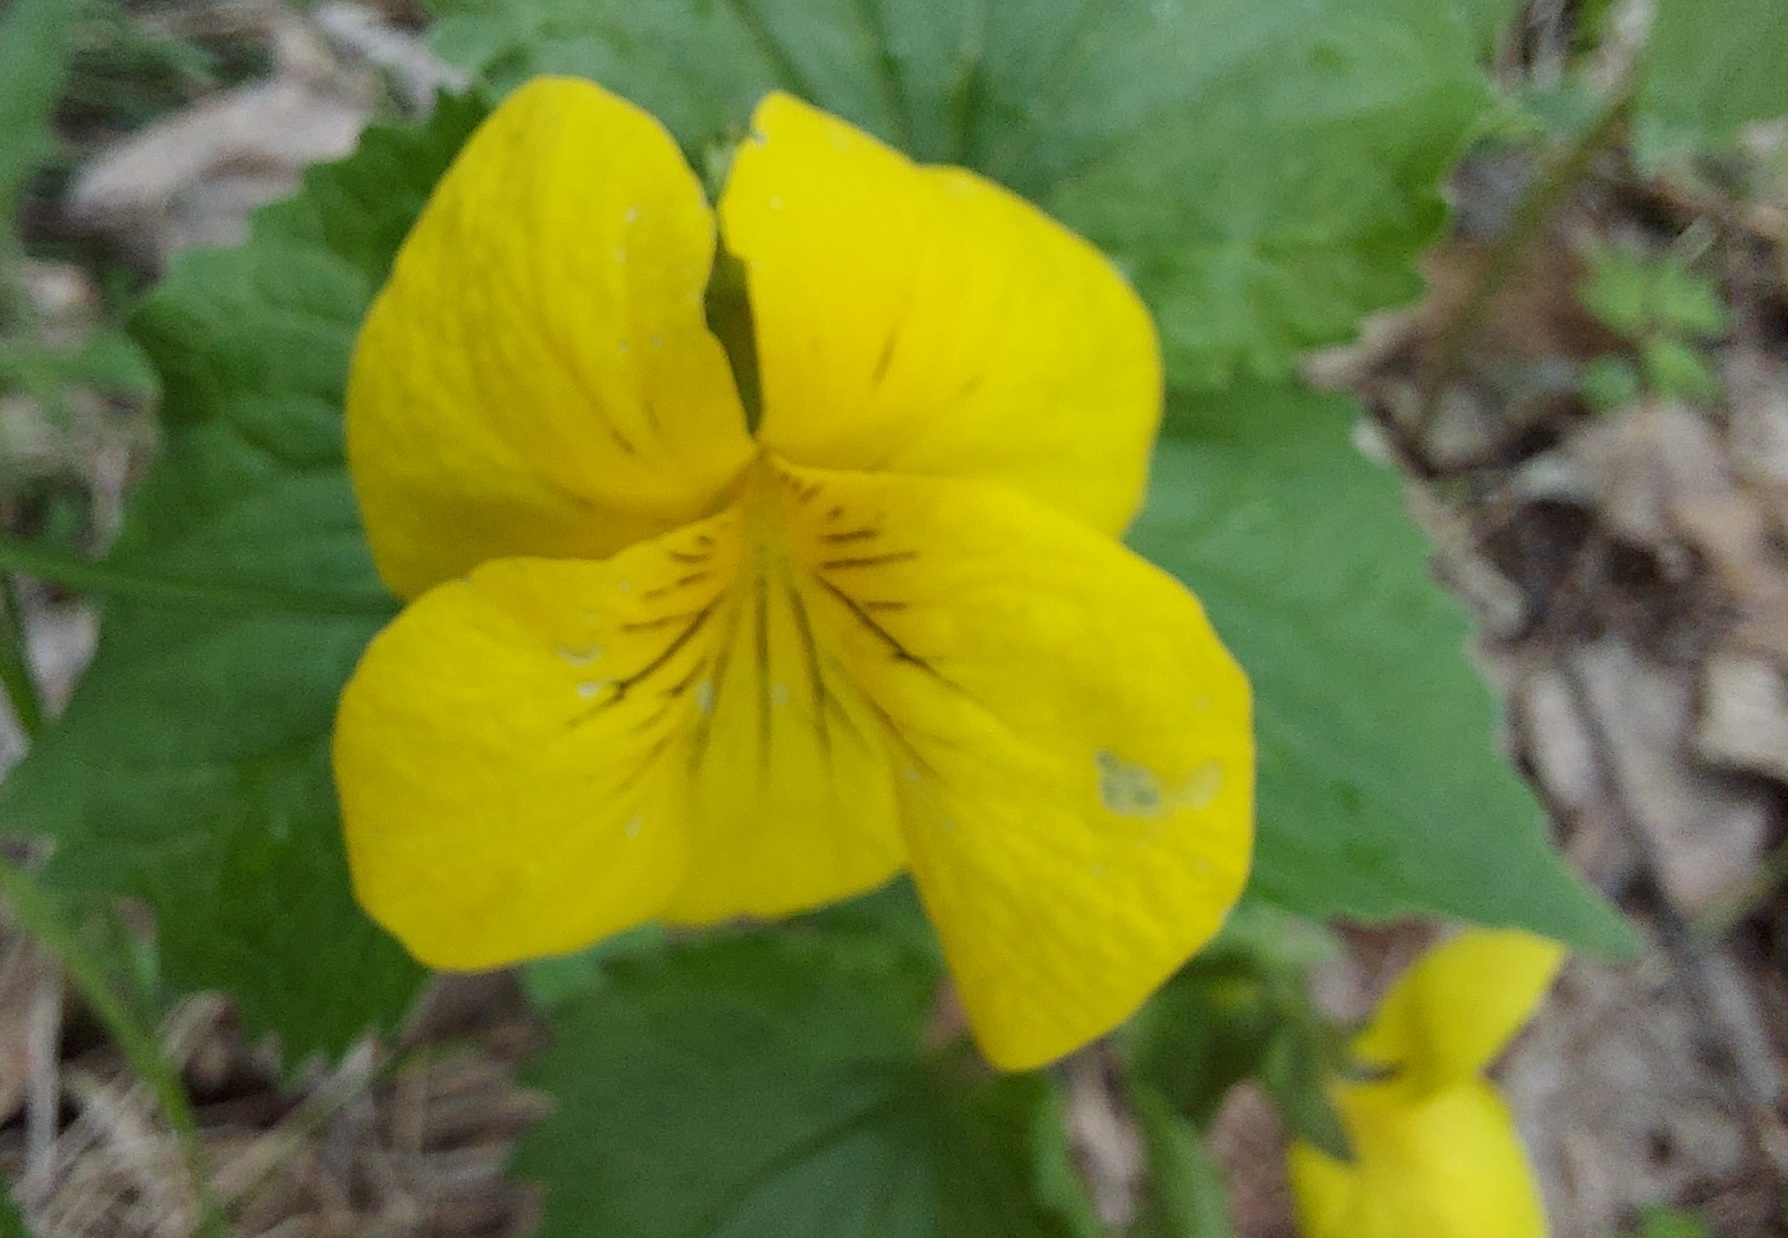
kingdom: Plantae
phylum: Tracheophyta
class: Magnoliopsida
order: Malpighiales
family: Violaceae
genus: Viola
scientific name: Viola uniflora
